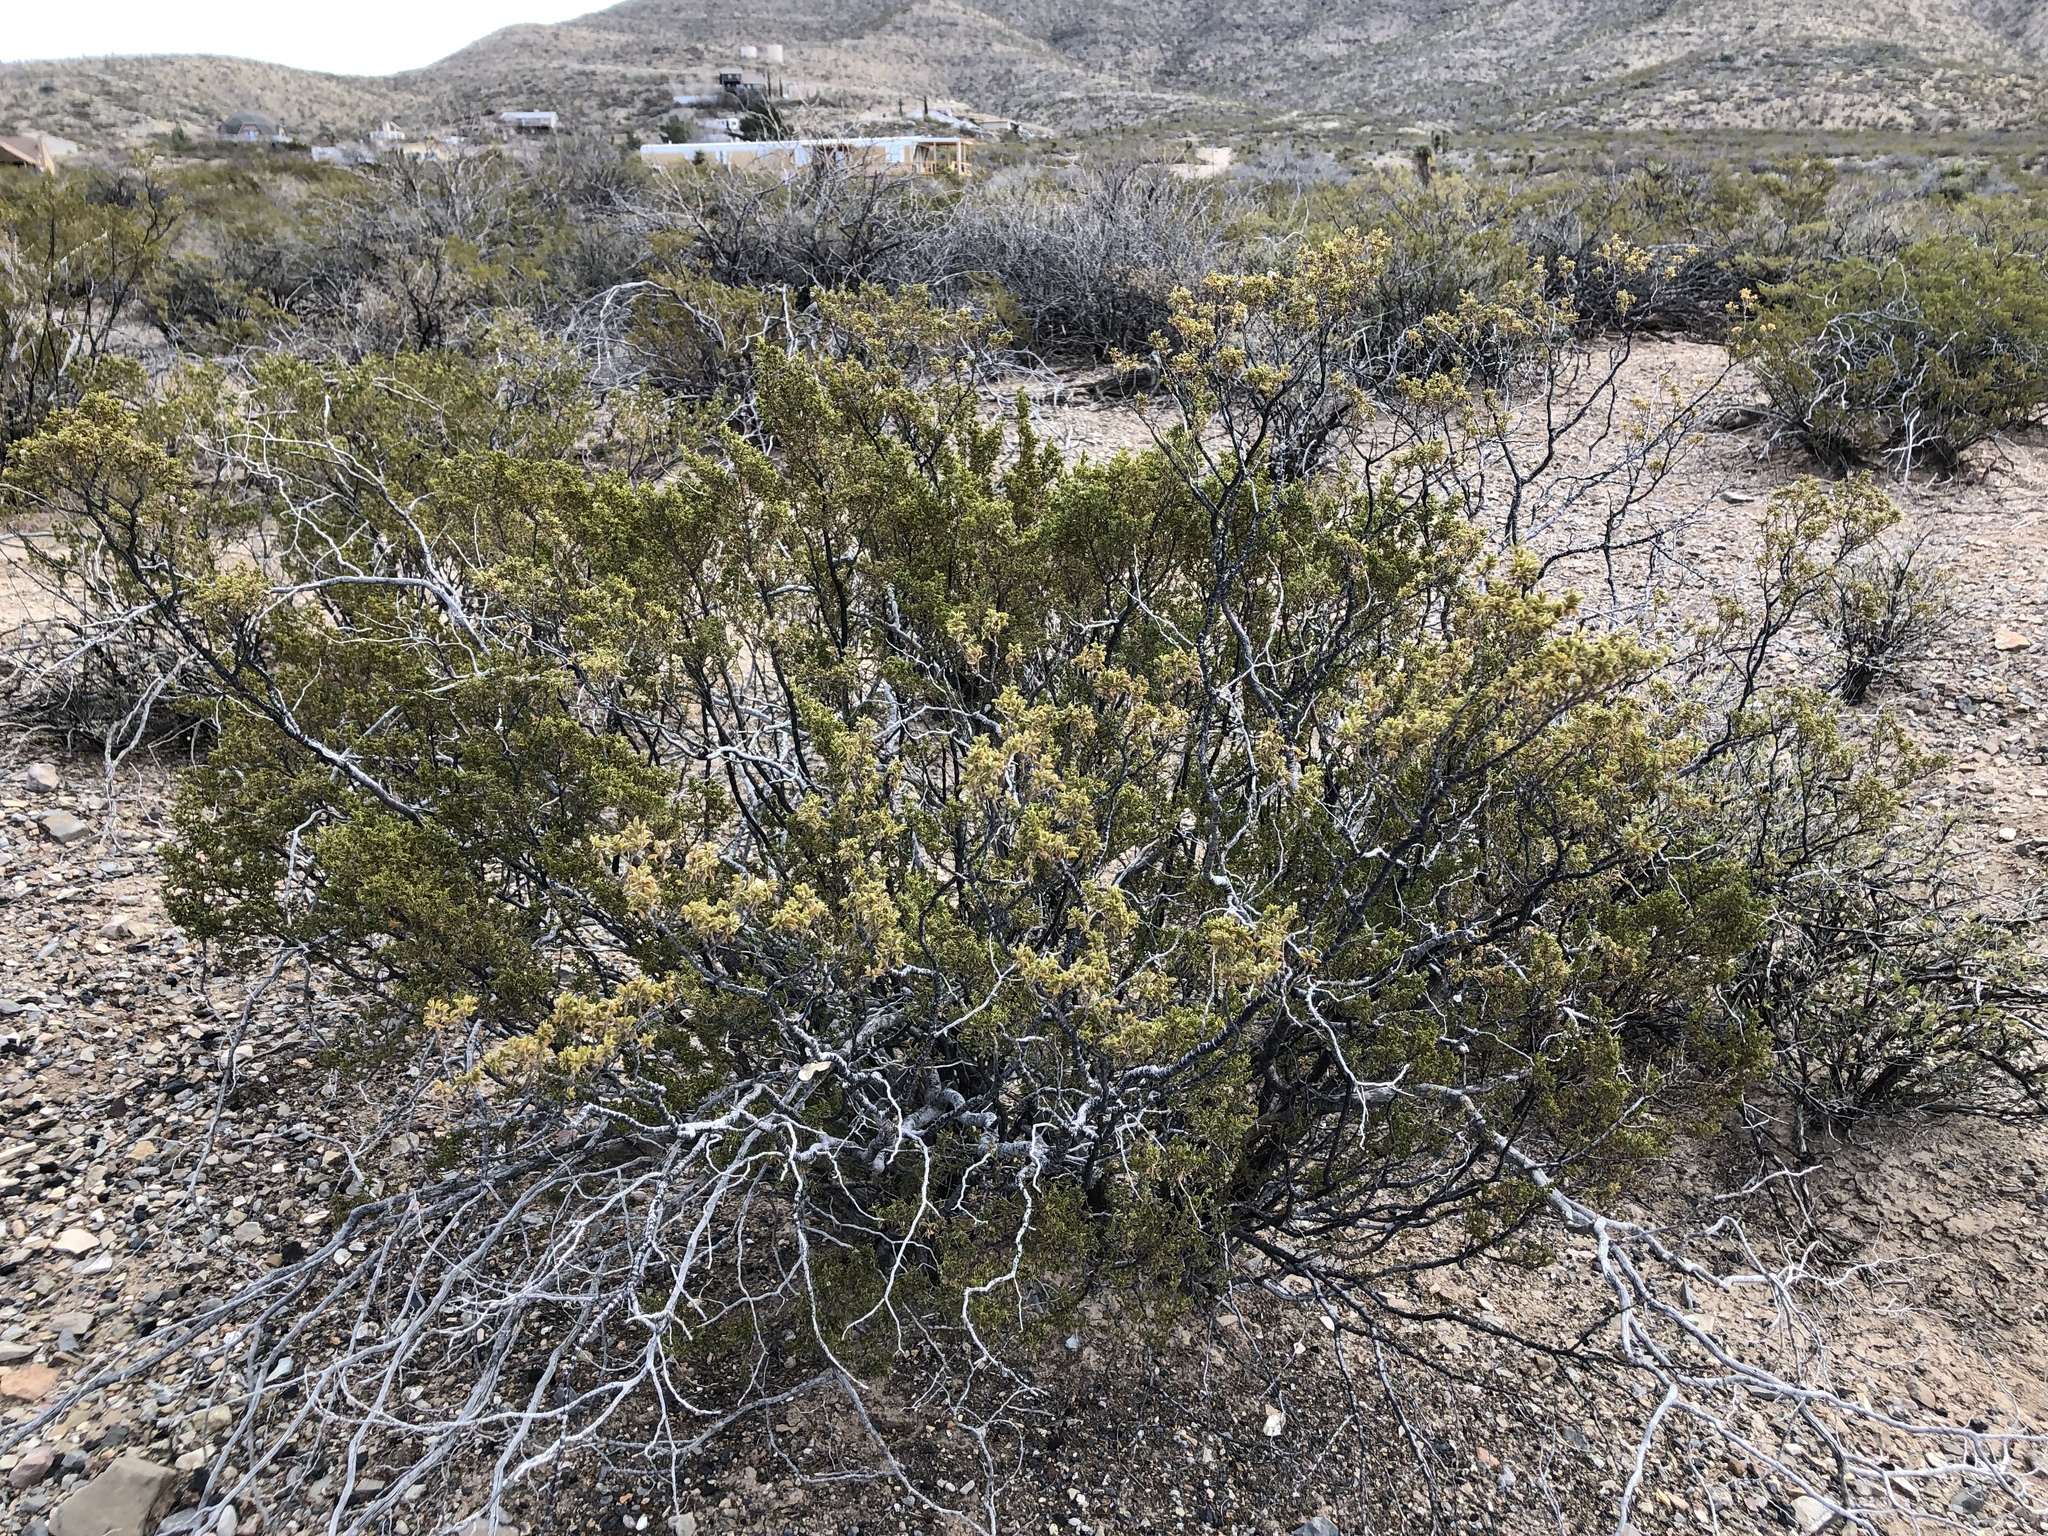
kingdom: Plantae
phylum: Tracheophyta
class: Magnoliopsida
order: Zygophyllales
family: Zygophyllaceae
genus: Larrea
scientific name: Larrea tridentata
